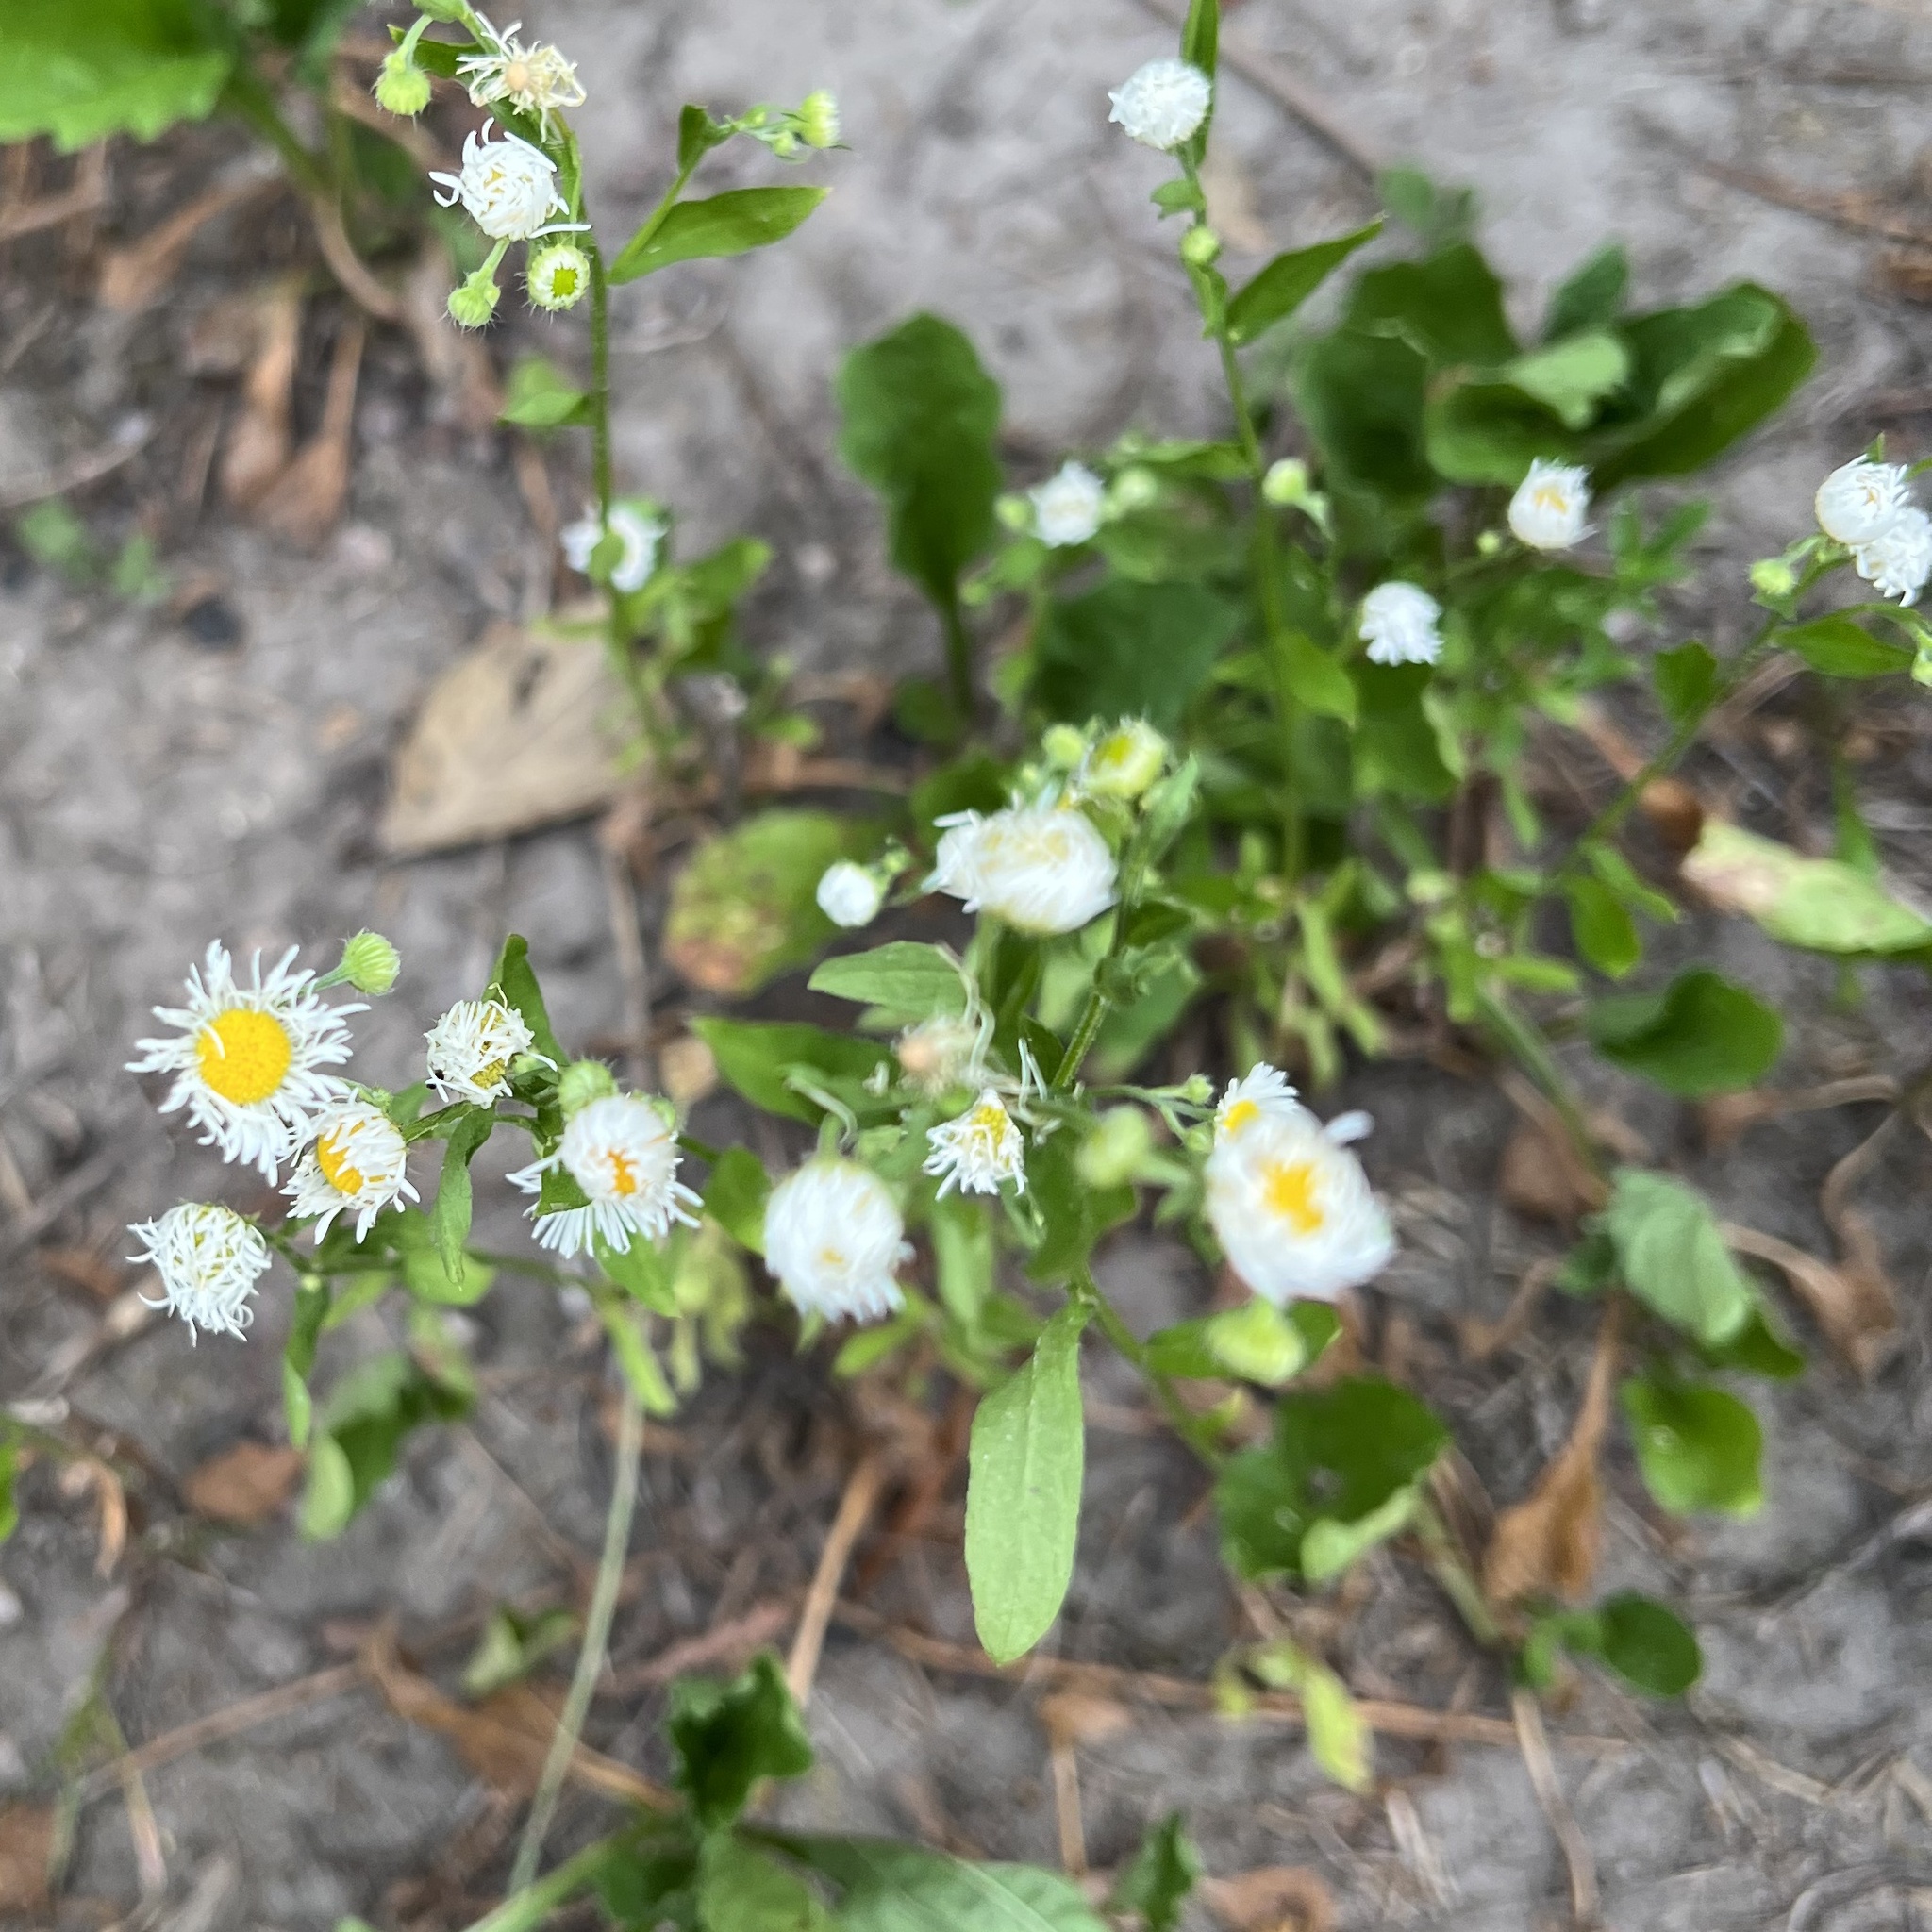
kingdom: Plantae
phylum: Tracheophyta
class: Magnoliopsida
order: Asterales
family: Asteraceae
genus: Erigeron
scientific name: Erigeron annuus
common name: Tall fleabane
